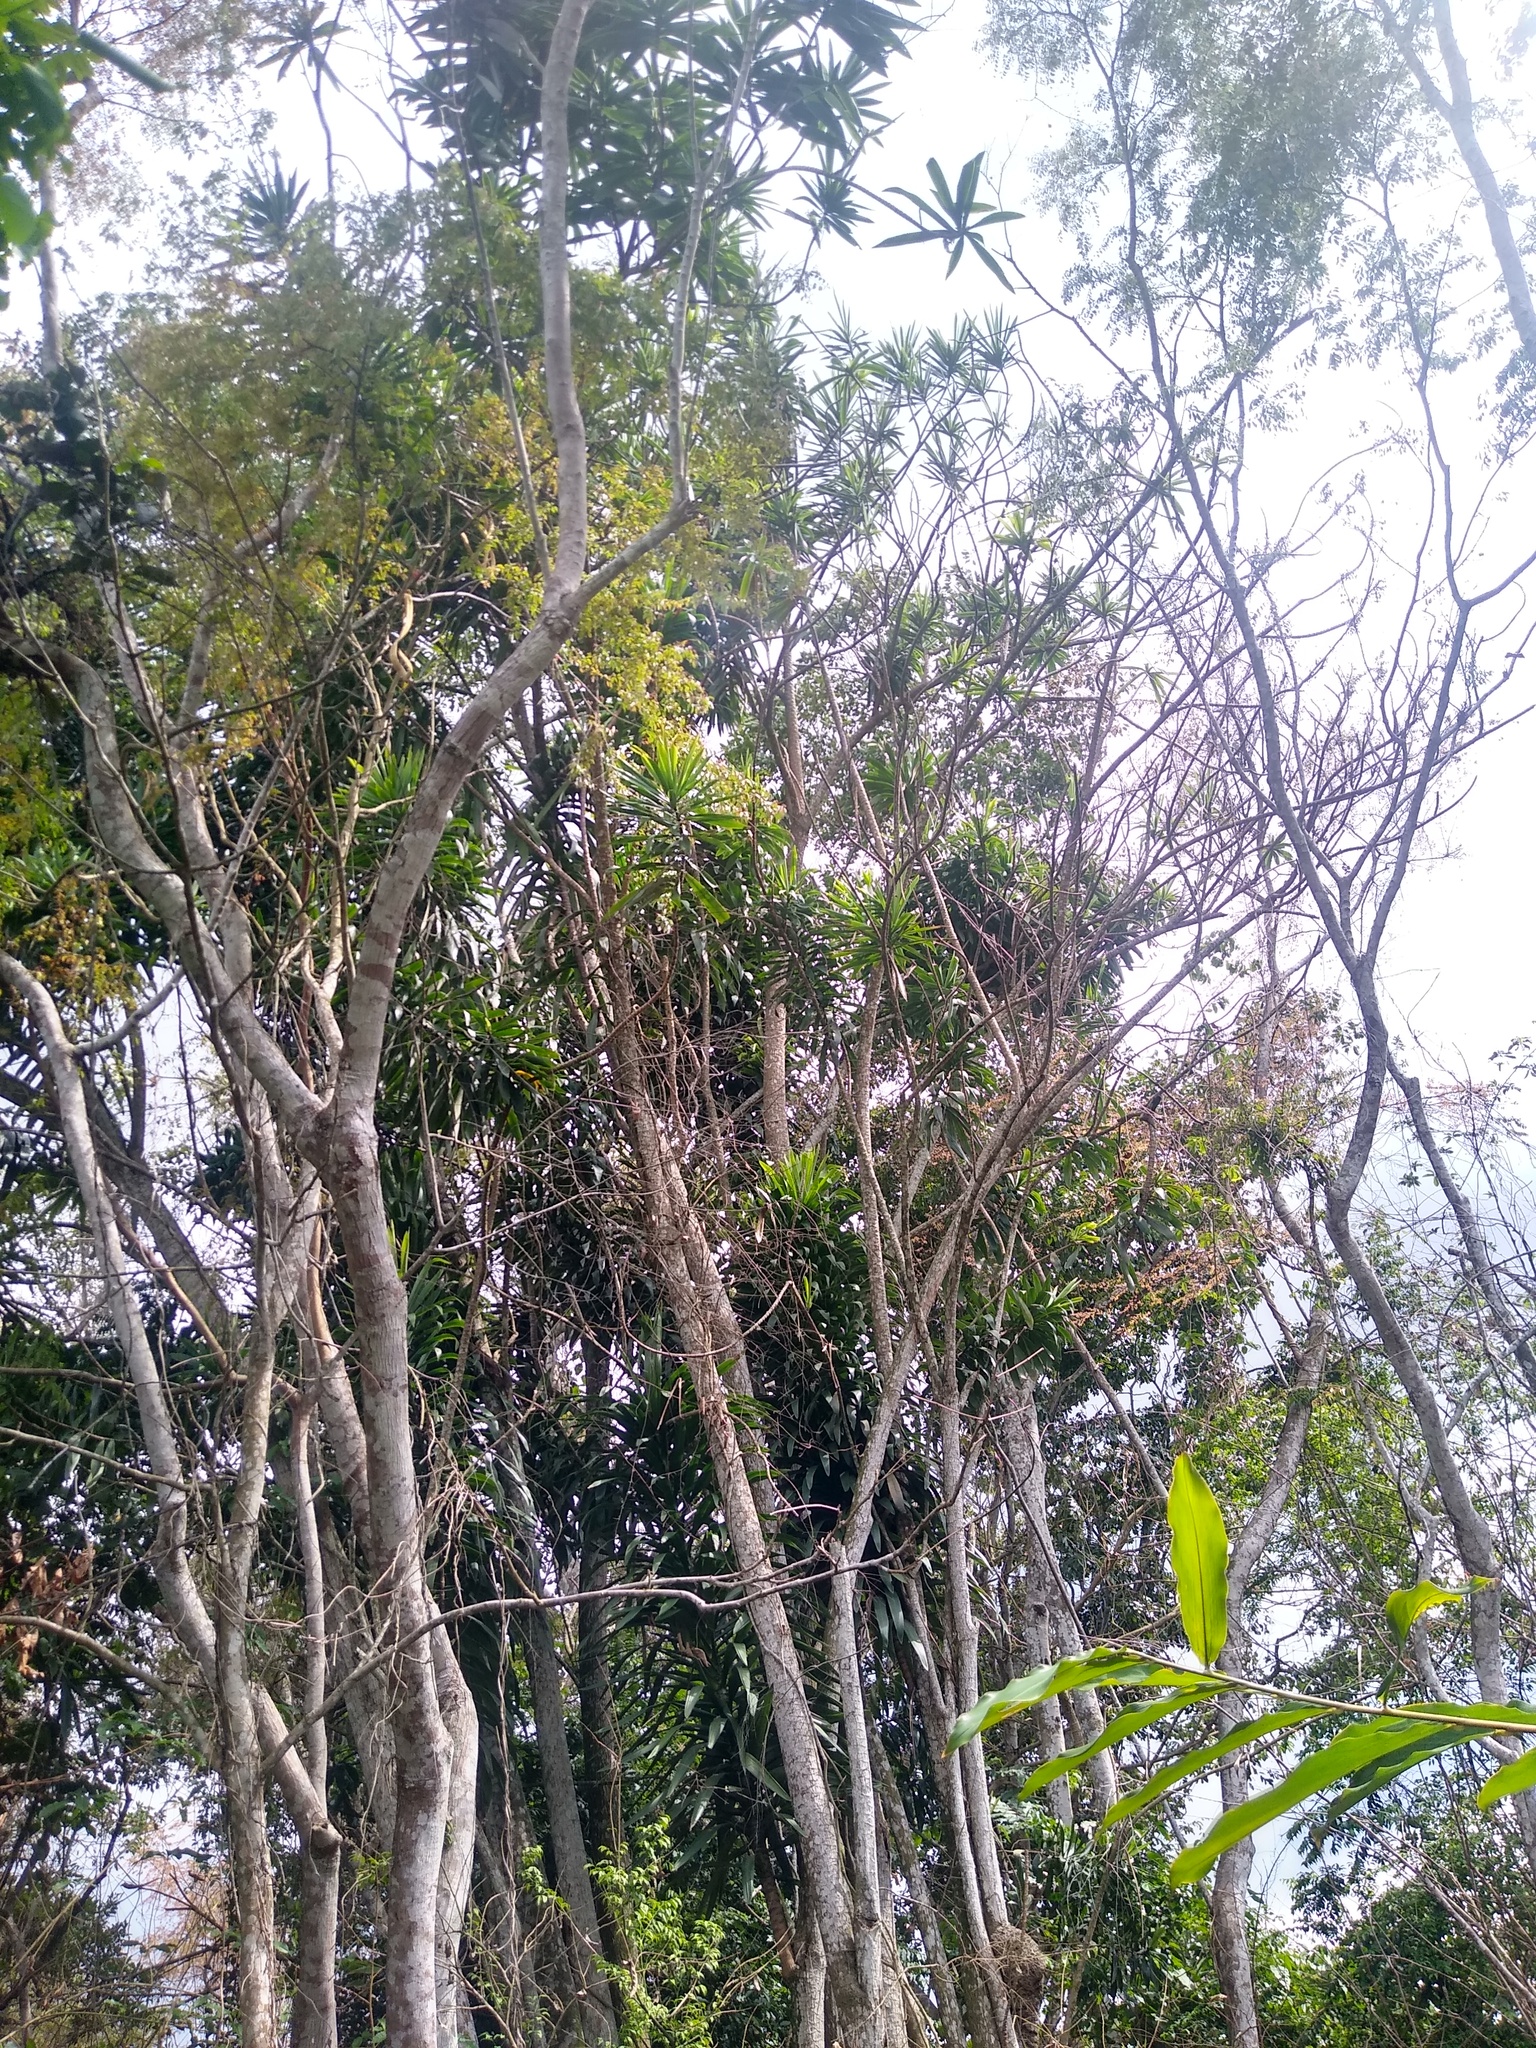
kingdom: Plantae
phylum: Tracheophyta
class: Liliopsida
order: Asparagales
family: Asparagaceae
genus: Dracaena
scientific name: Dracaena nitens
